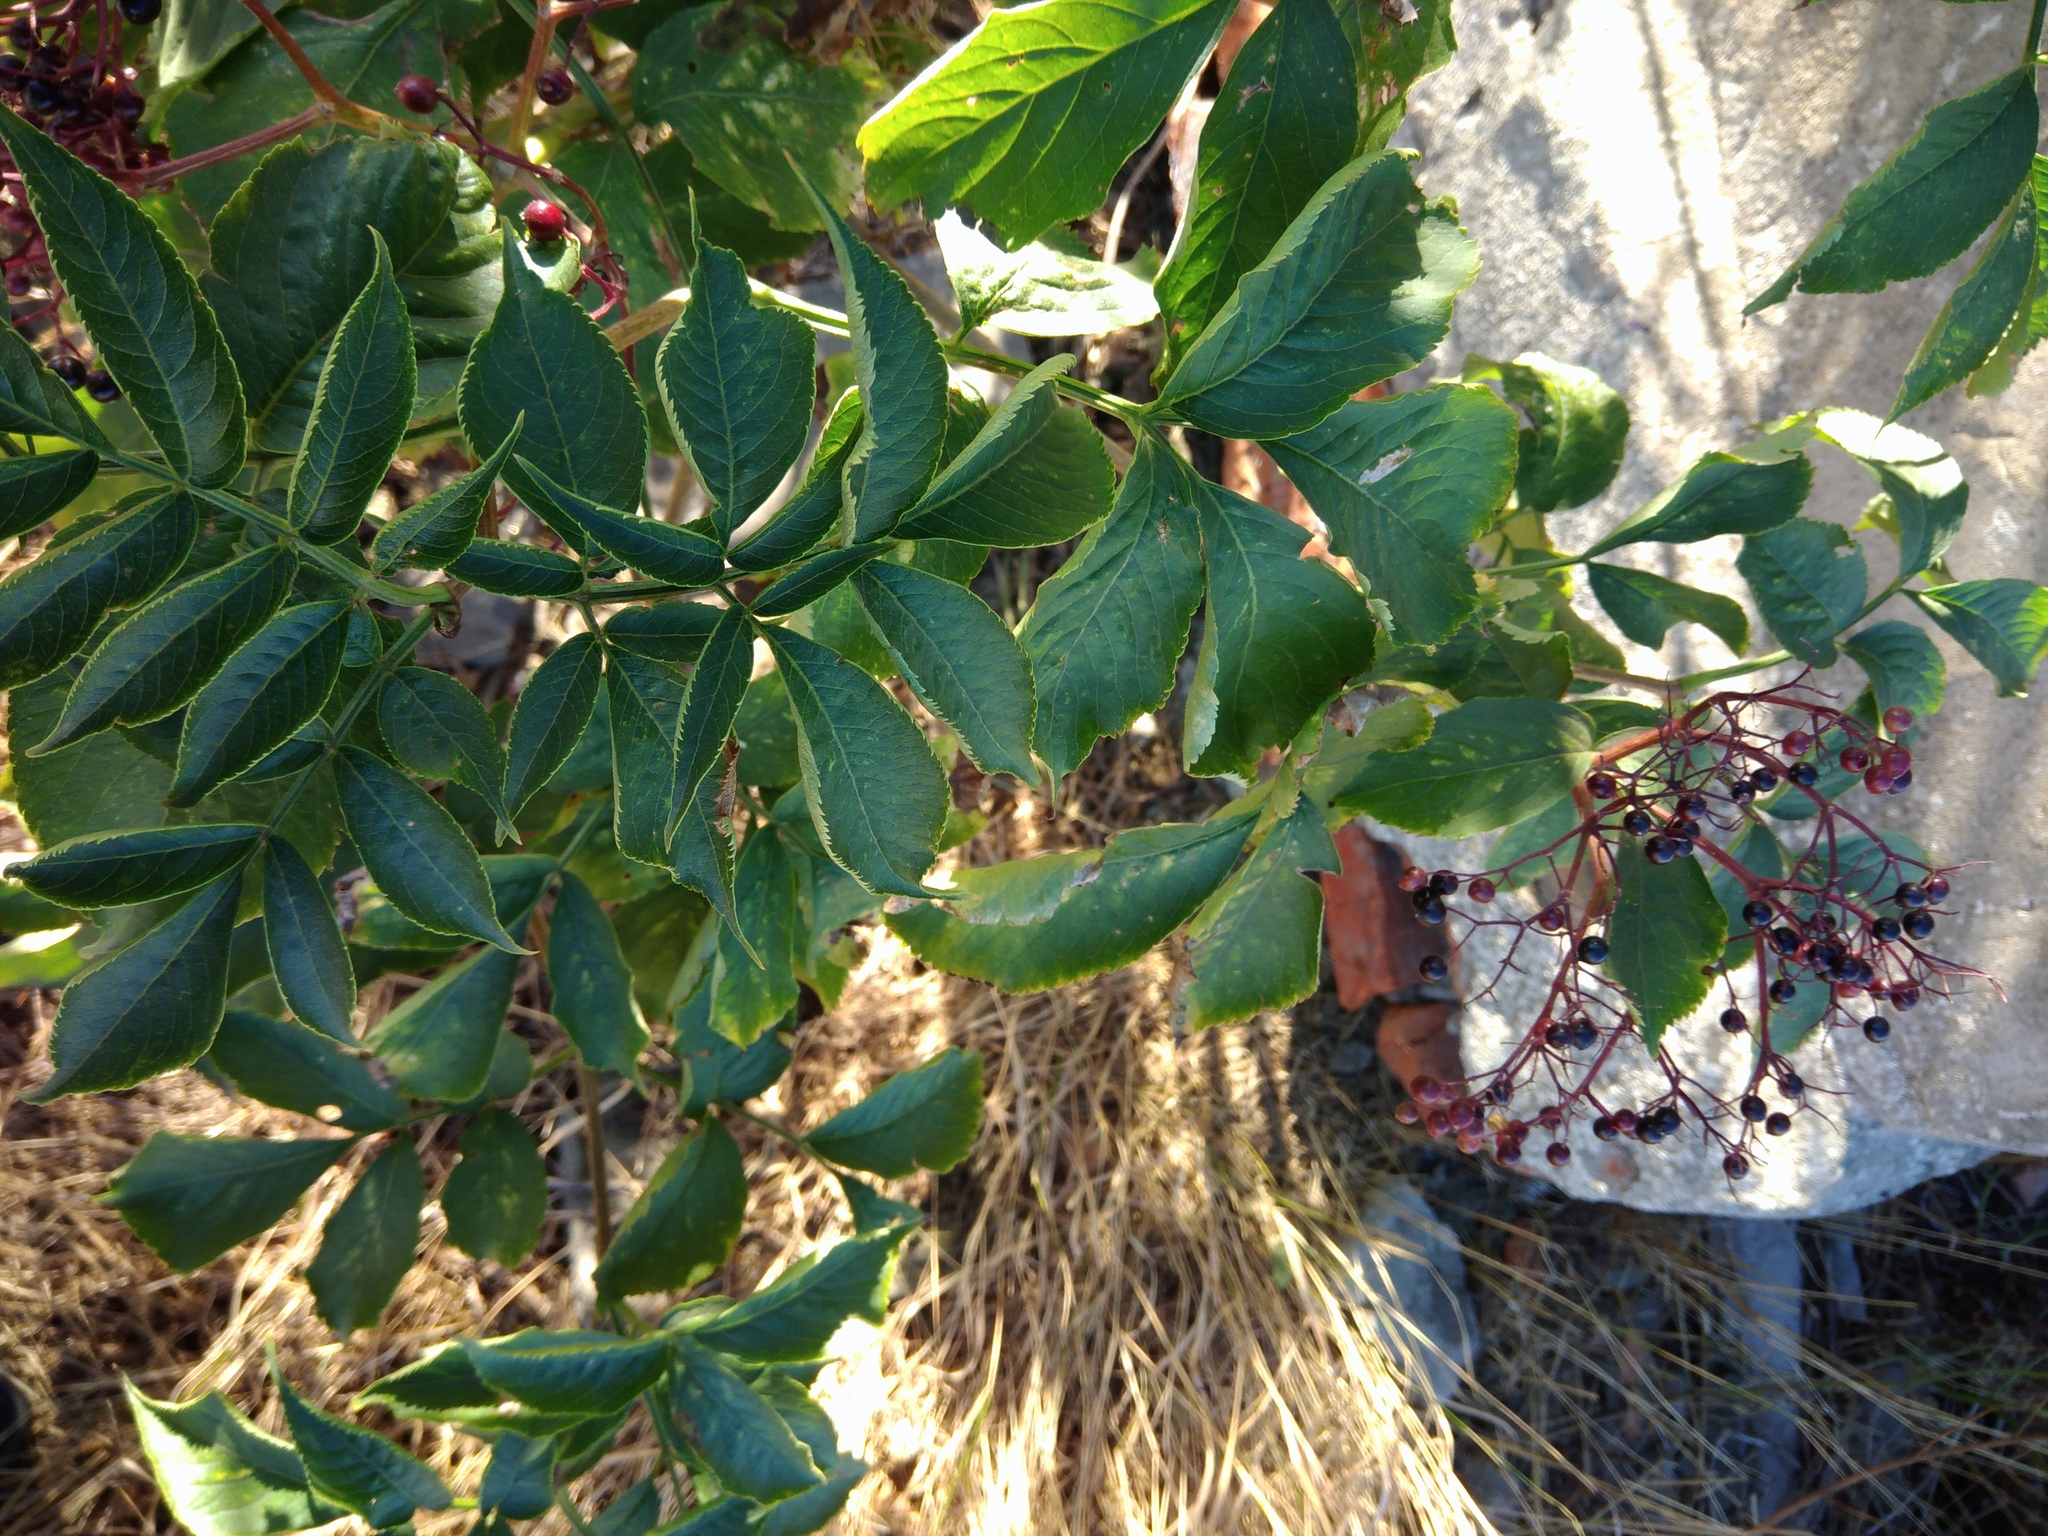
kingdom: Plantae
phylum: Tracheophyta
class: Magnoliopsida
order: Dipsacales
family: Viburnaceae
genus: Sambucus
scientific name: Sambucus nigra
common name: Elder
